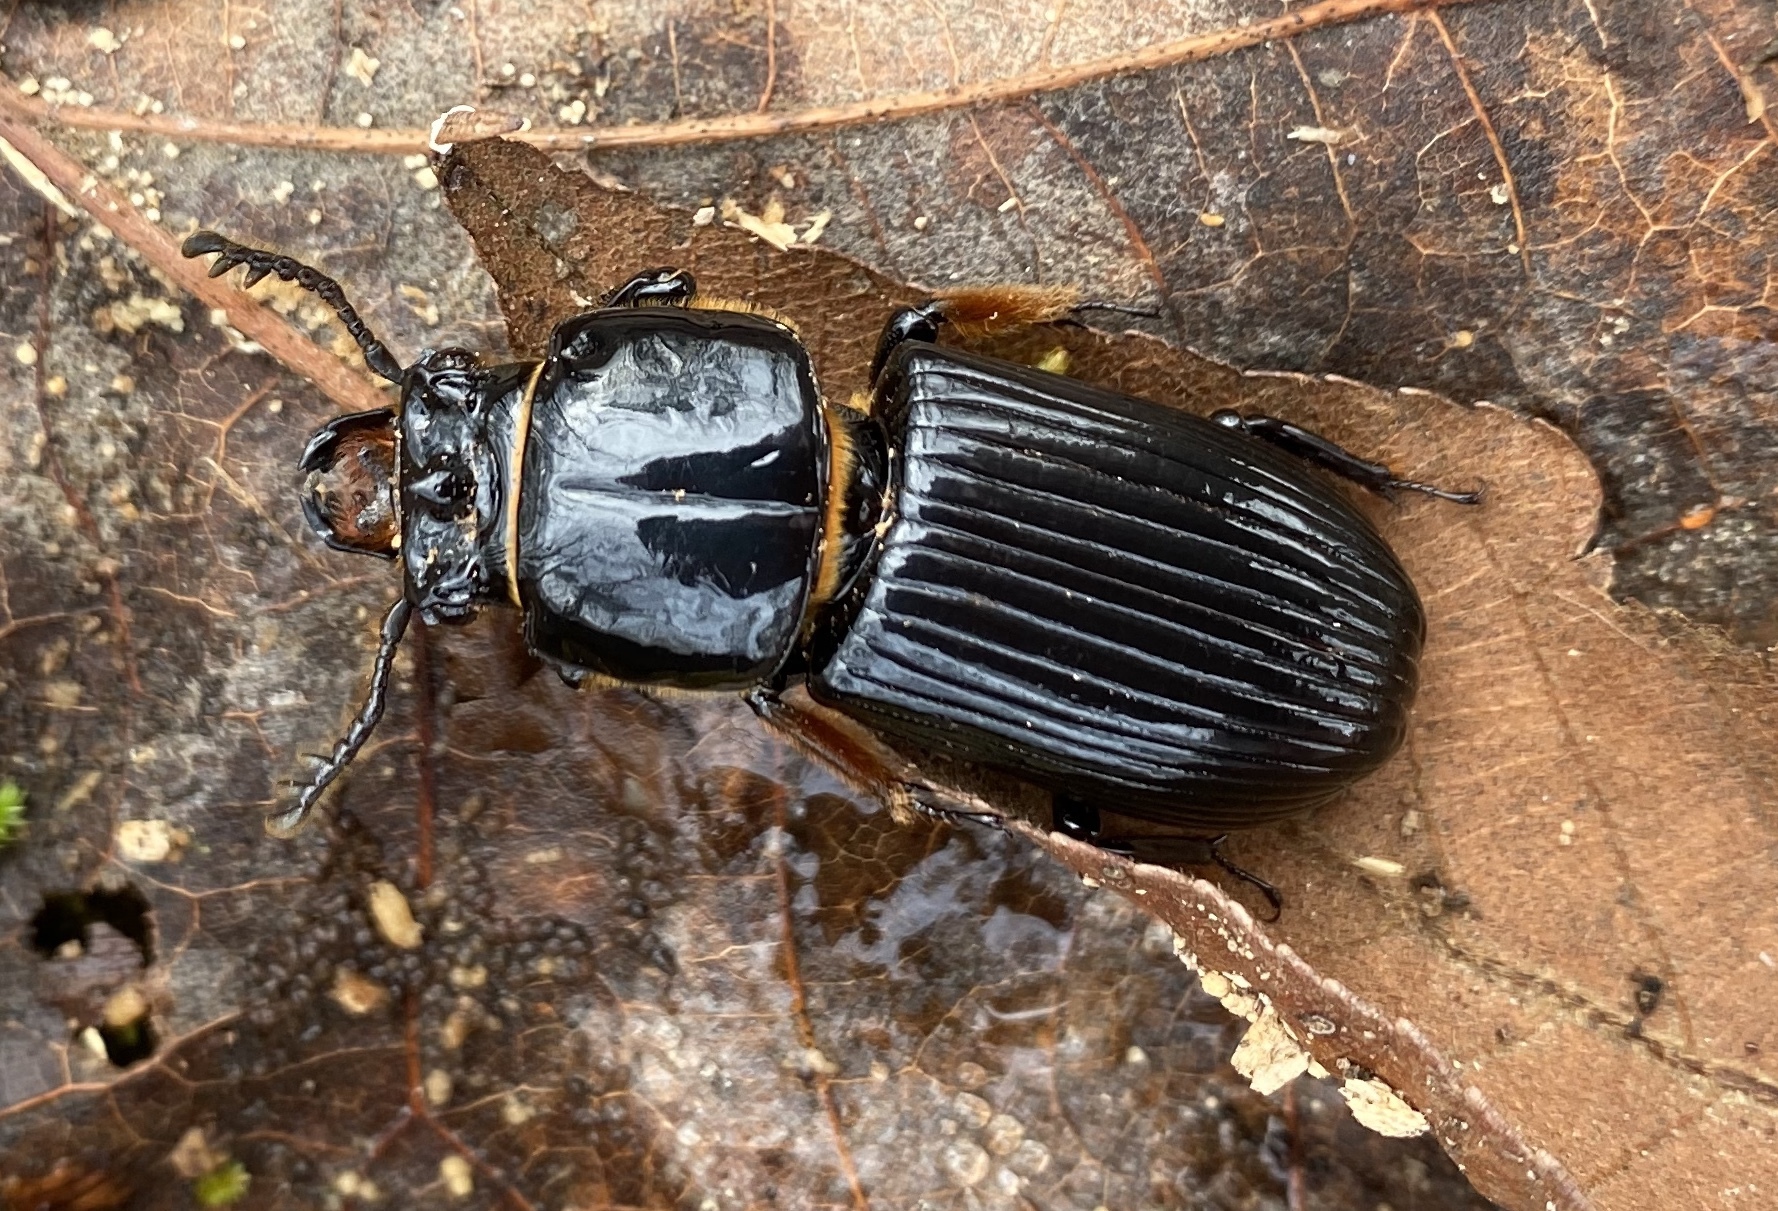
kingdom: Animalia
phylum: Arthropoda
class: Insecta
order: Coleoptera
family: Passalidae
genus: Odontotaenius
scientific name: Odontotaenius disjunctus
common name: Patent leather beetle
